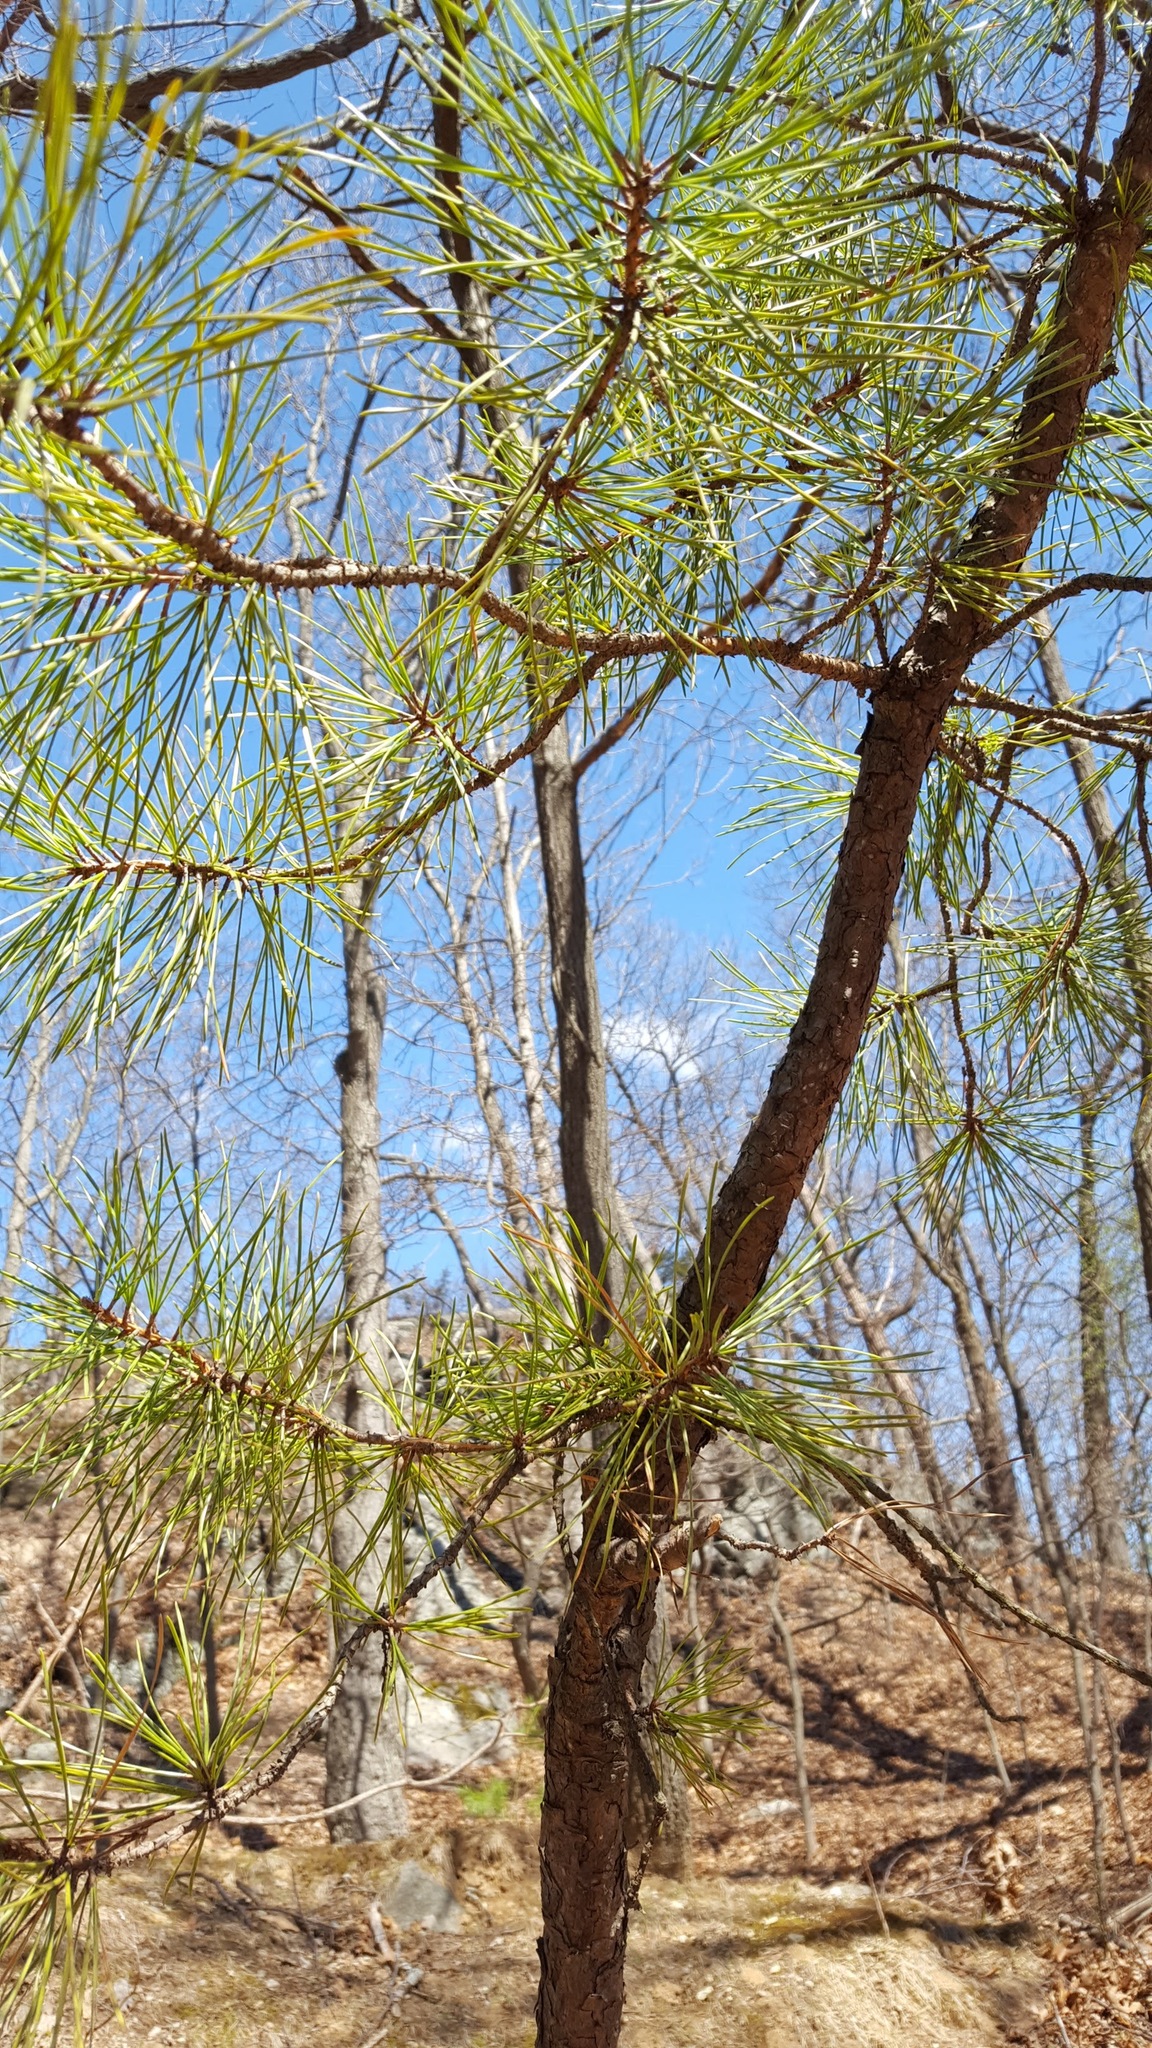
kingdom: Plantae
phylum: Tracheophyta
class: Pinopsida
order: Pinales
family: Pinaceae
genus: Pinus
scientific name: Pinus rigida
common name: Pitch pine
